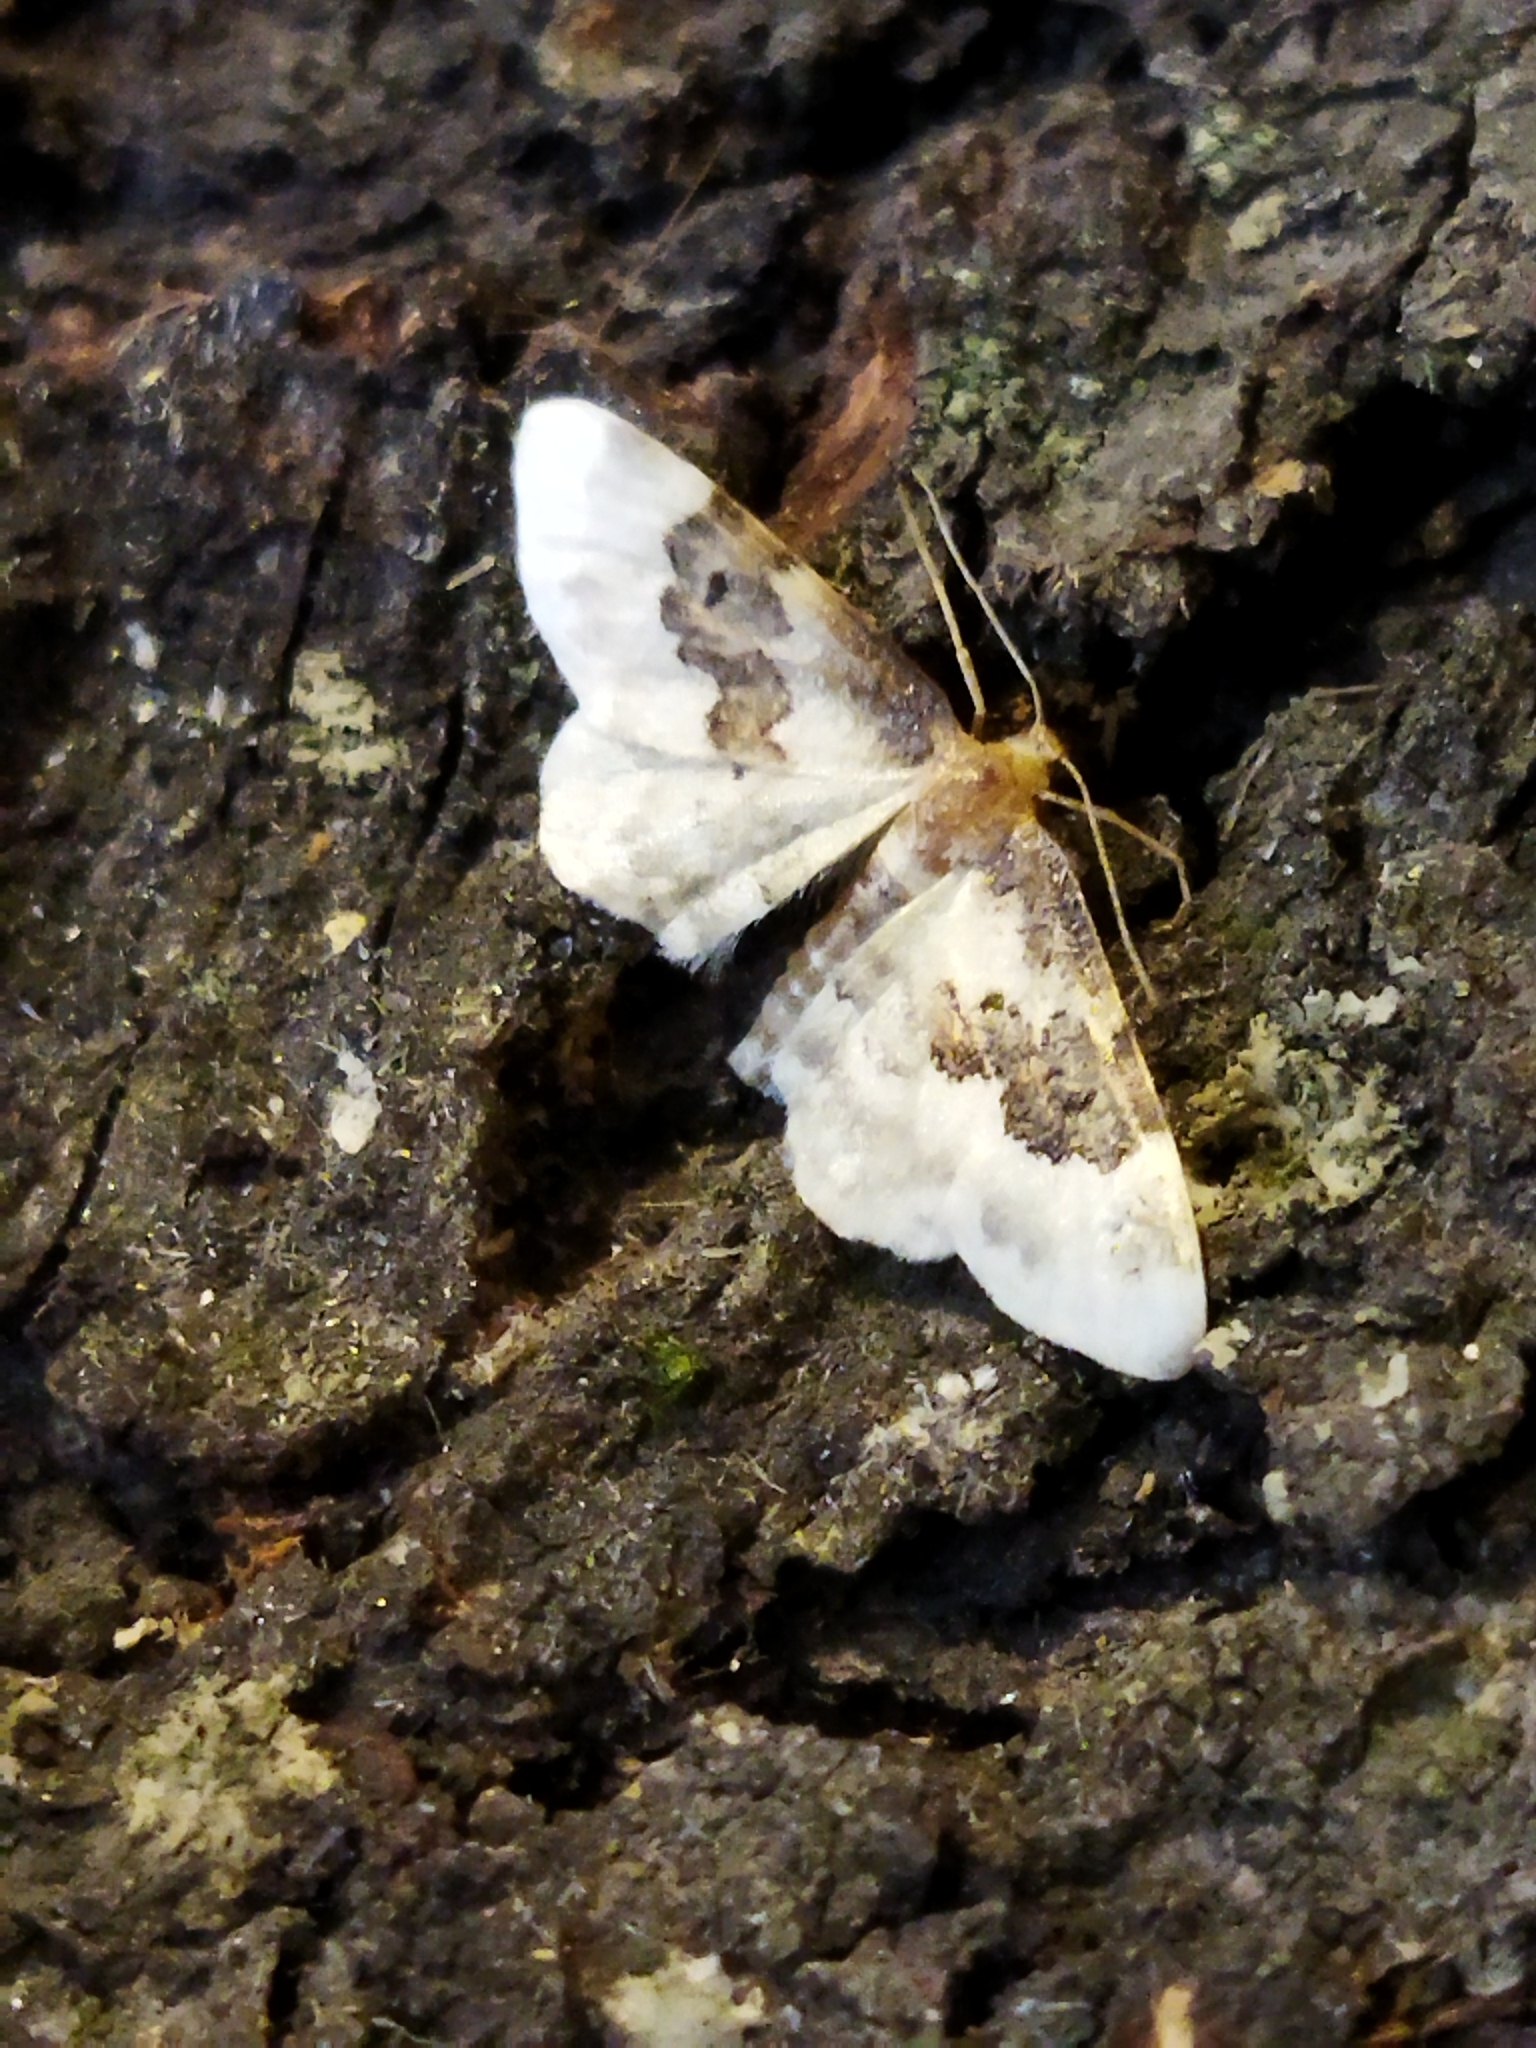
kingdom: Animalia
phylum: Arthropoda
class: Insecta
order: Lepidoptera
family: Geometridae
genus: Idaea
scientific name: Idaea rusticata
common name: Least carpet
